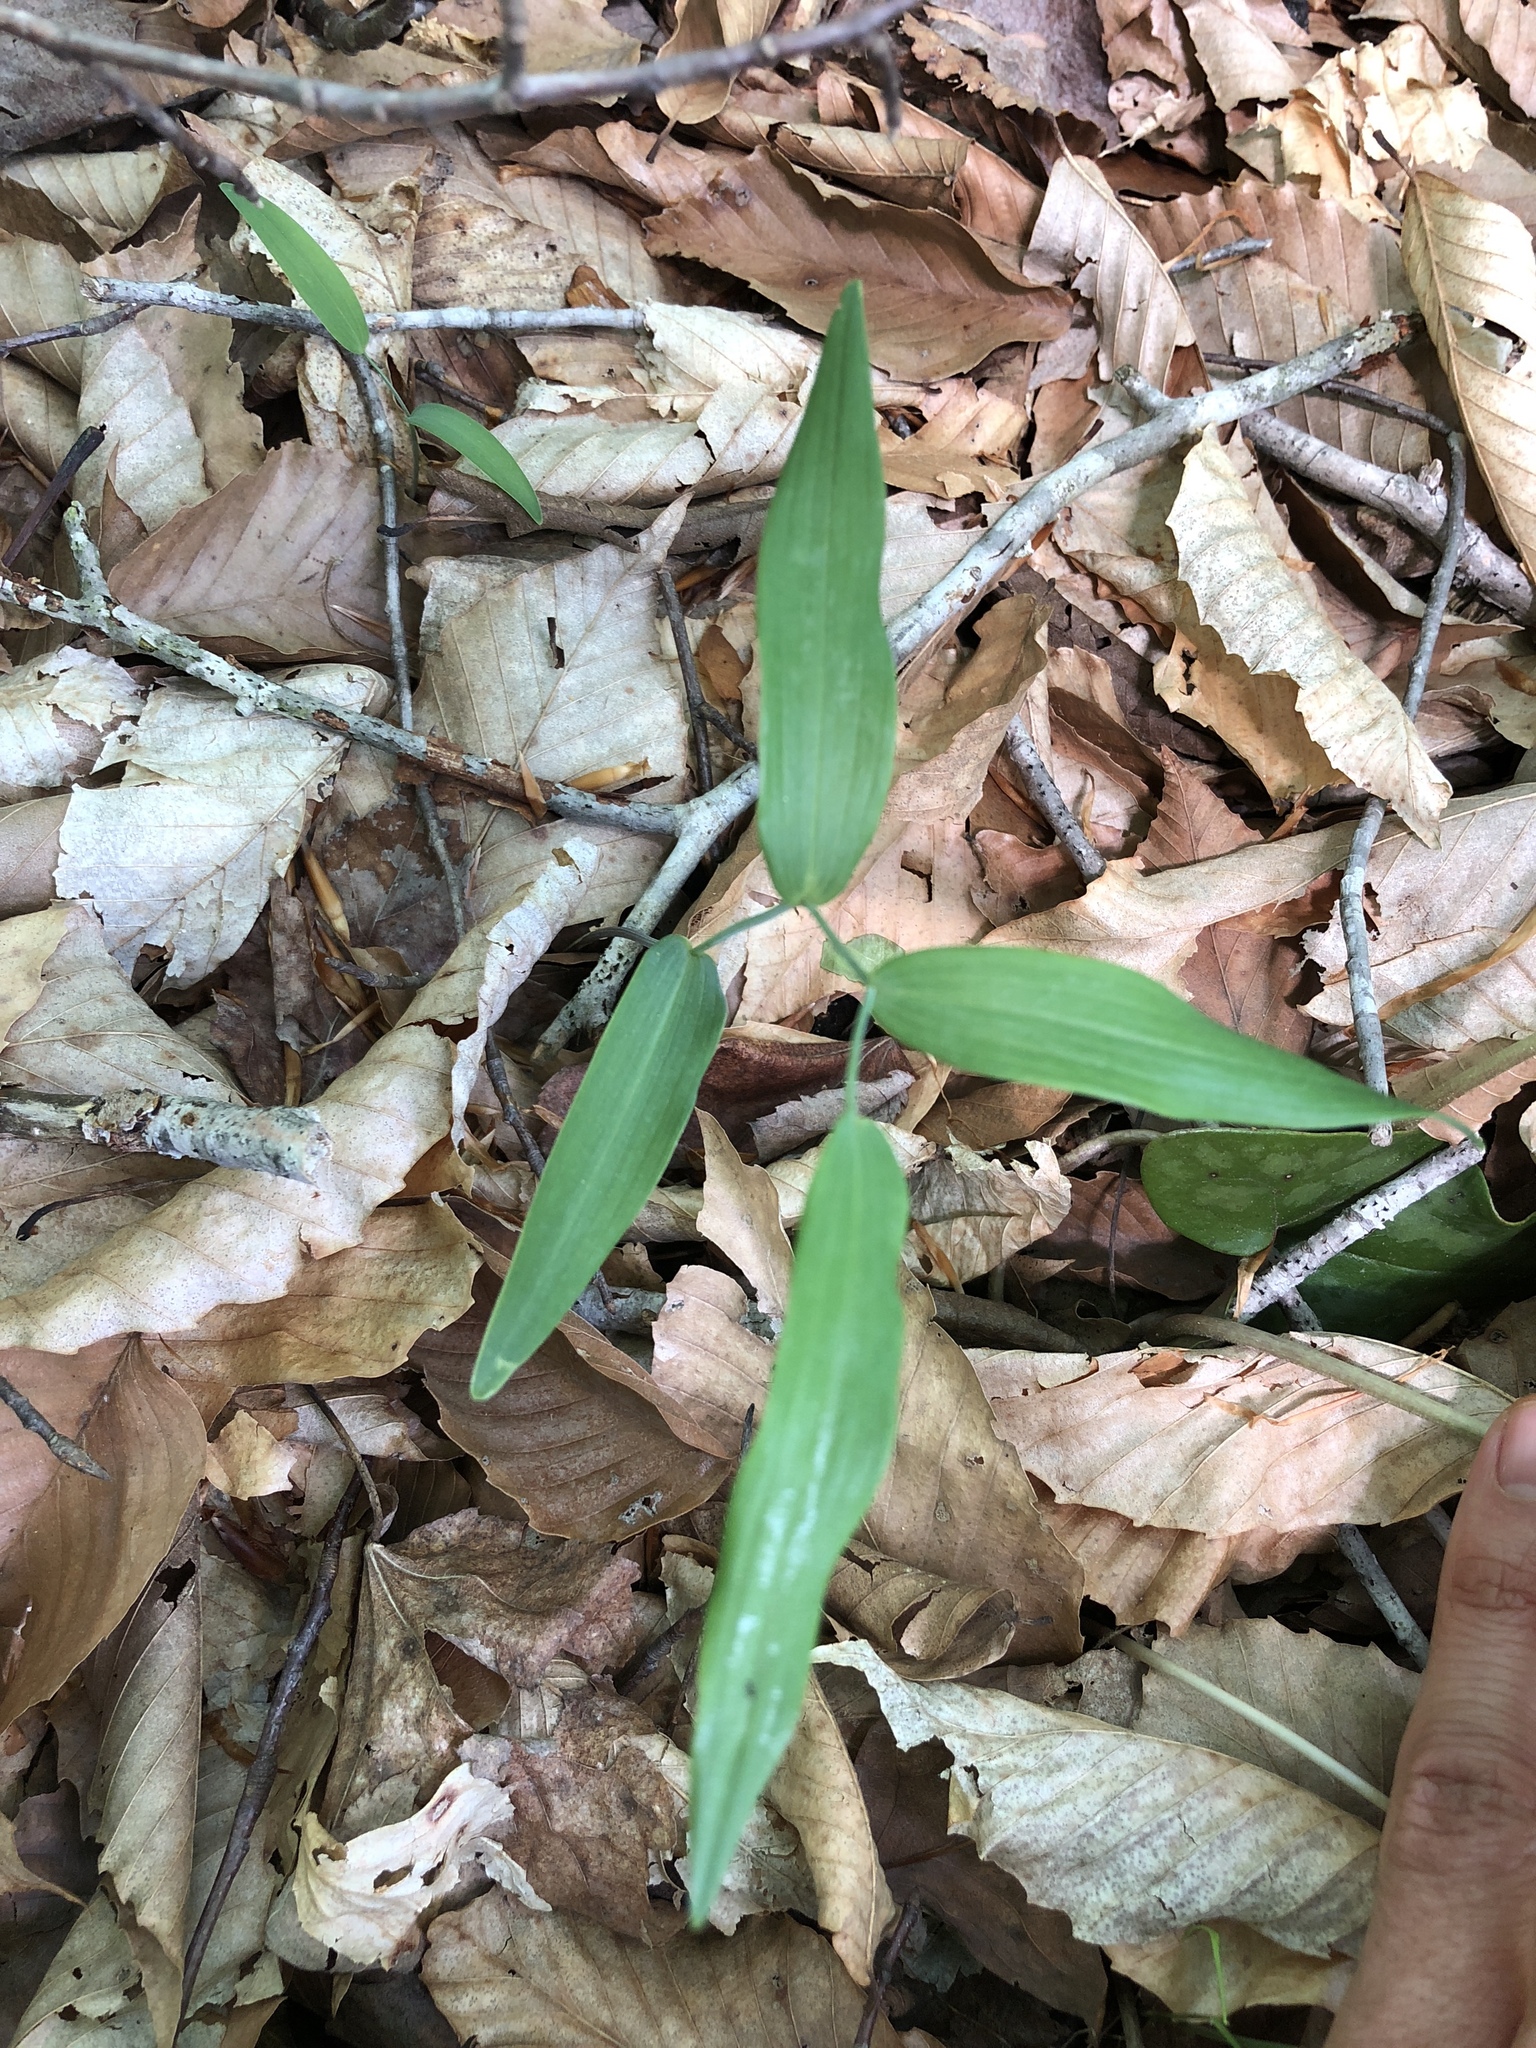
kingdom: Plantae
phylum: Tracheophyta
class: Liliopsida
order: Asparagales
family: Asparagaceae
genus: Polygonatum
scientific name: Polygonatum biflorum
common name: American solomon's-seal
